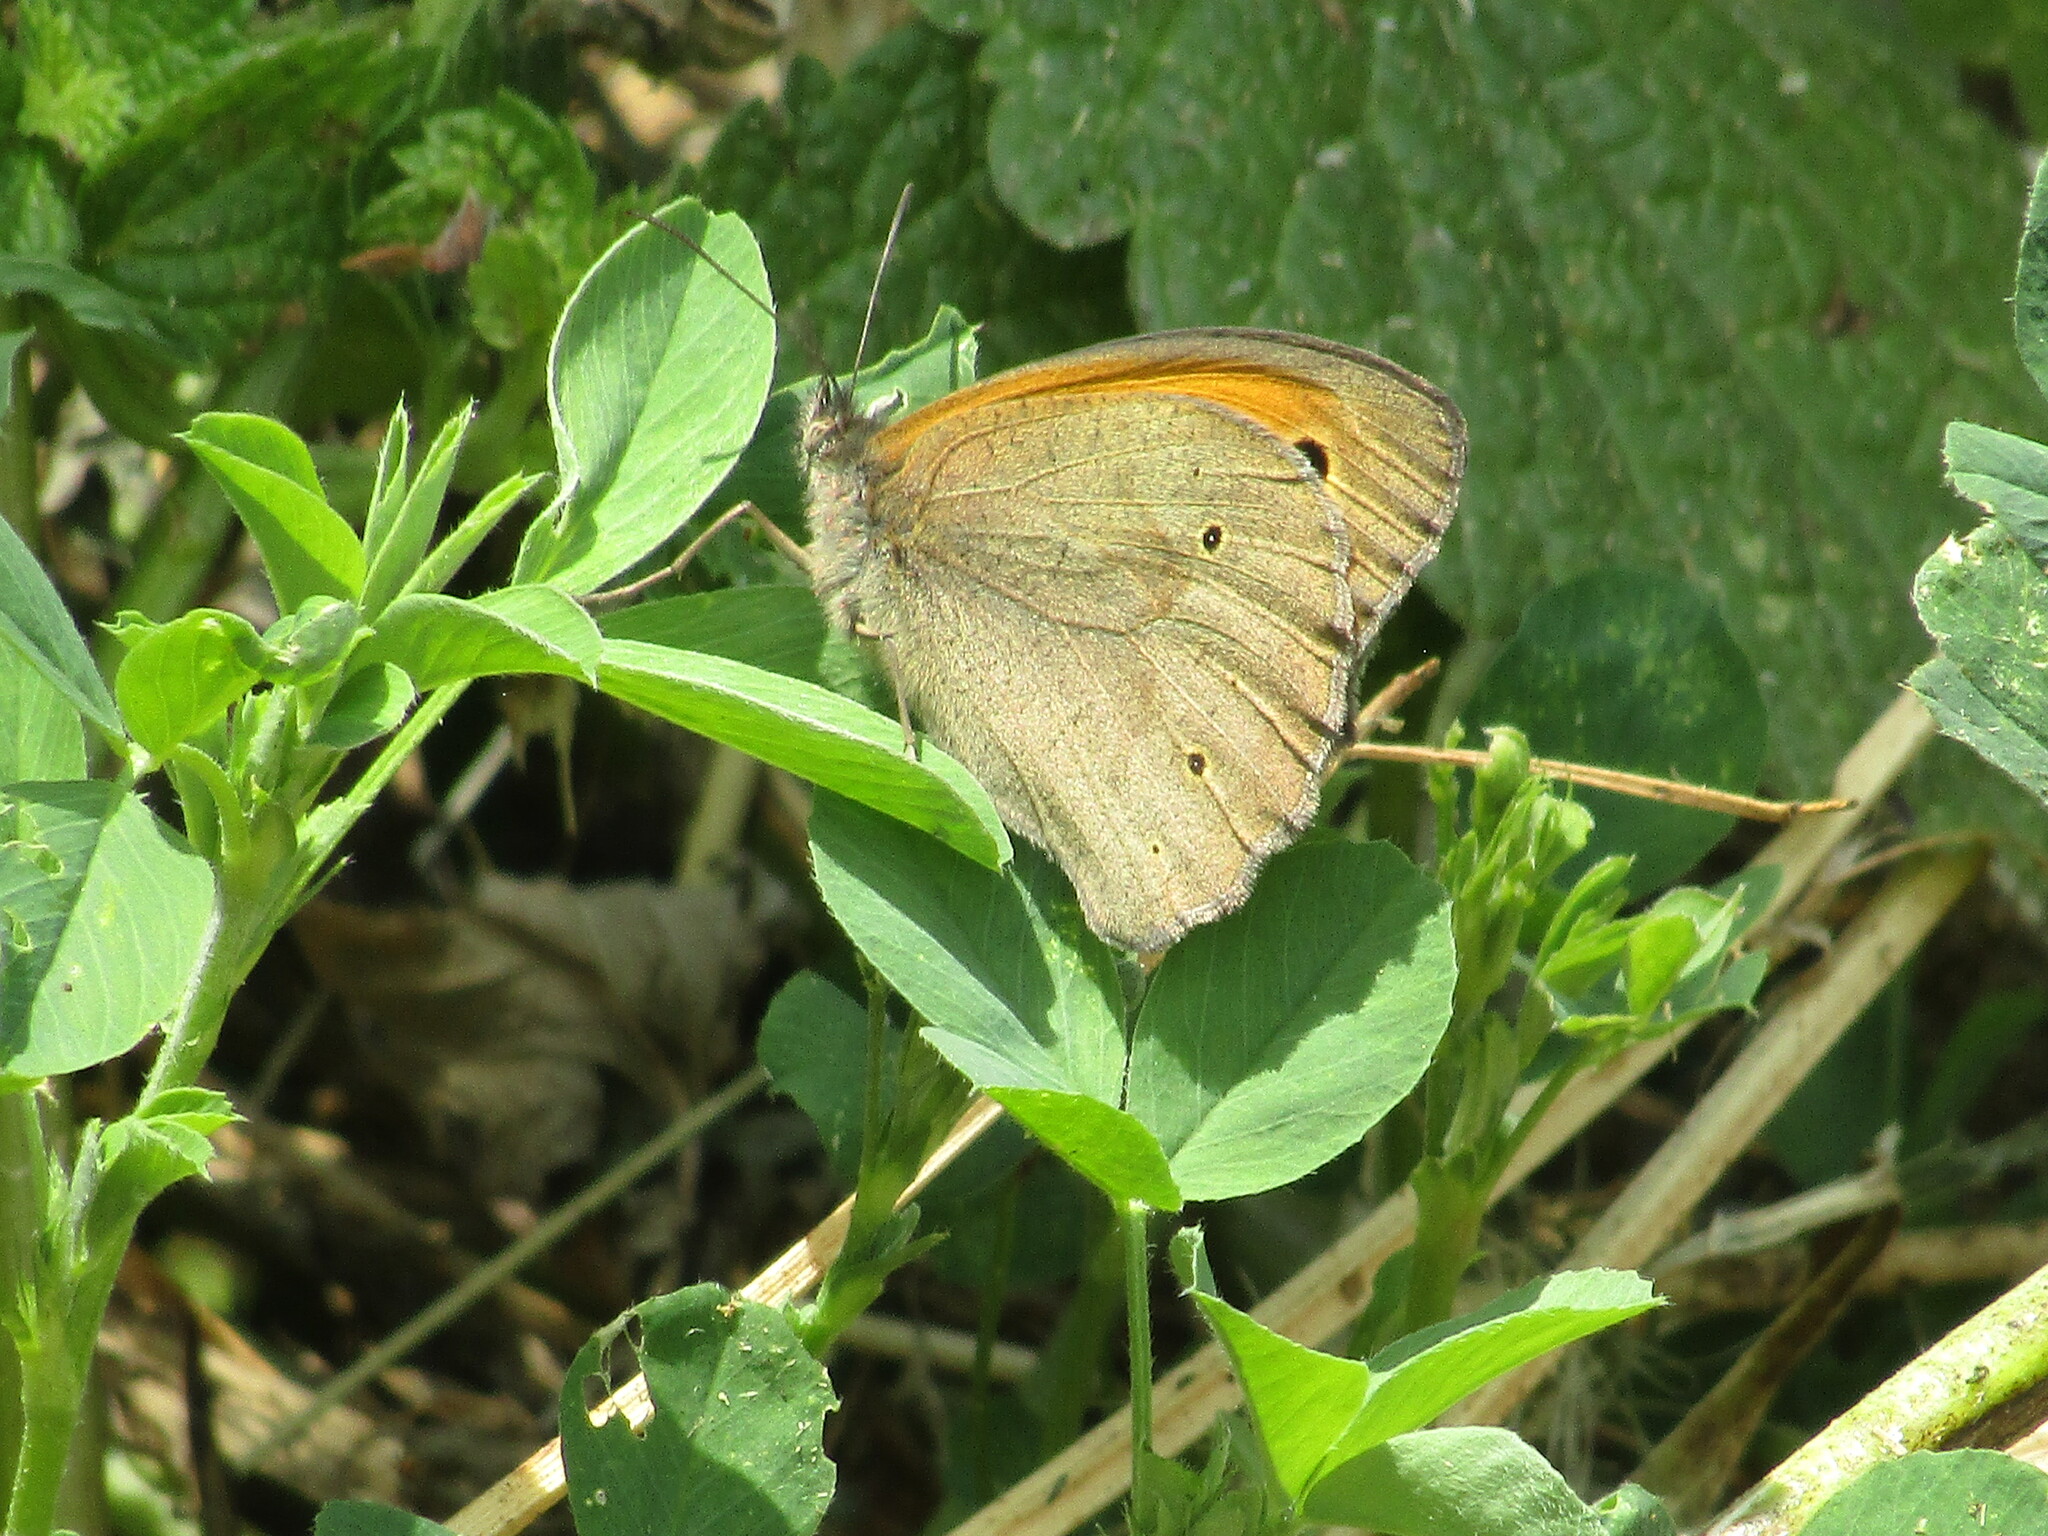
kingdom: Animalia
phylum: Arthropoda
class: Insecta
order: Lepidoptera
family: Nymphalidae
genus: Maniola
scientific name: Maniola jurtina
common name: Meadow brown
